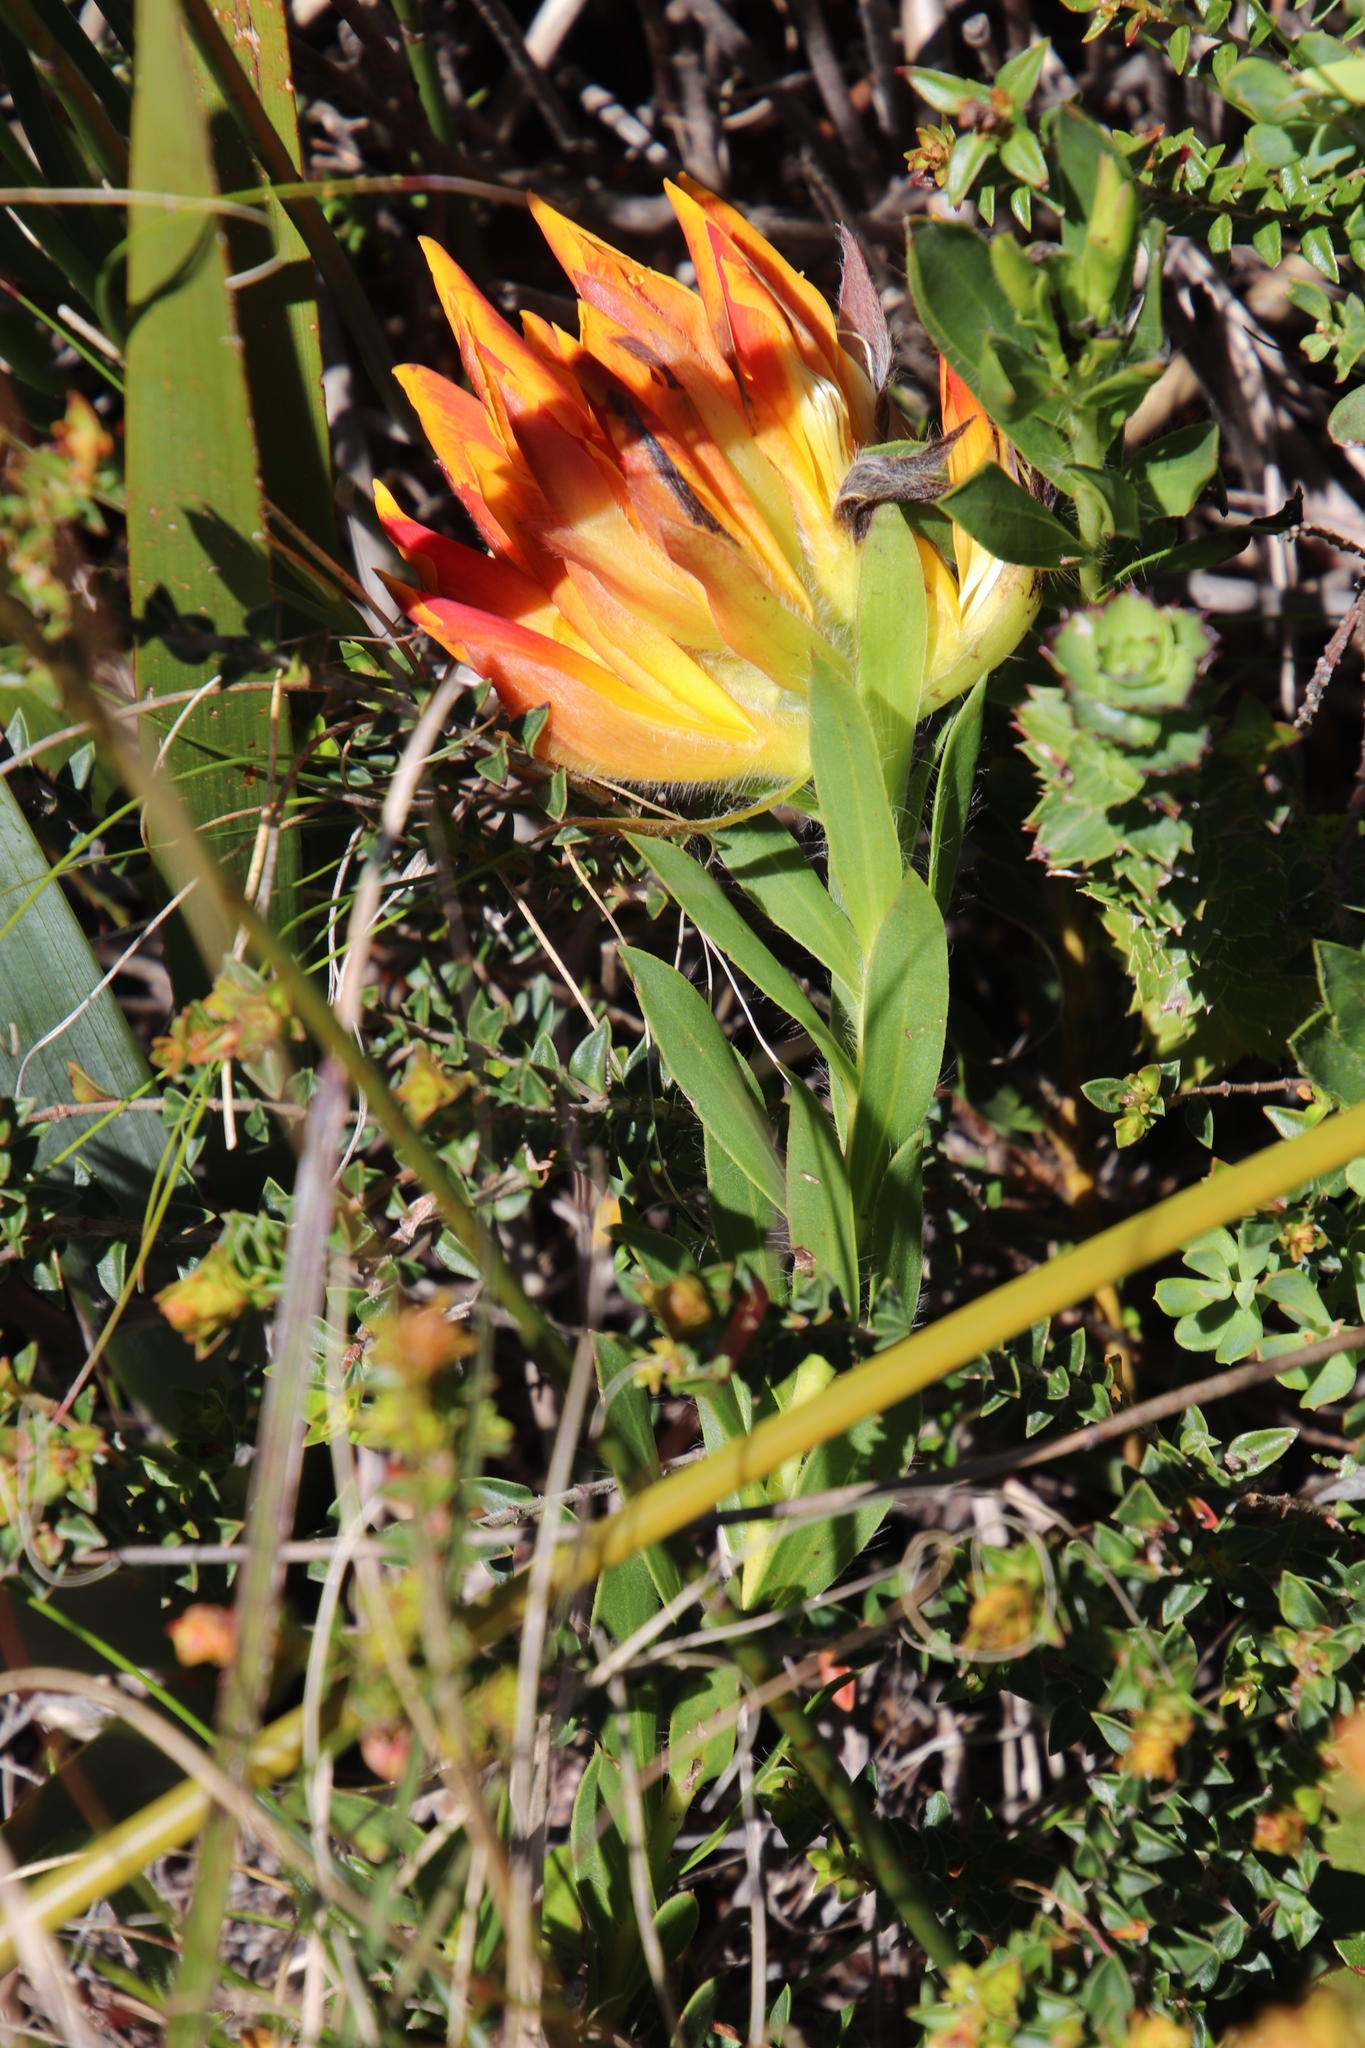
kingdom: Plantae
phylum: Tracheophyta
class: Magnoliopsida
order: Fabales
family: Fabaceae
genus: Liparia
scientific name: Liparia splendens
